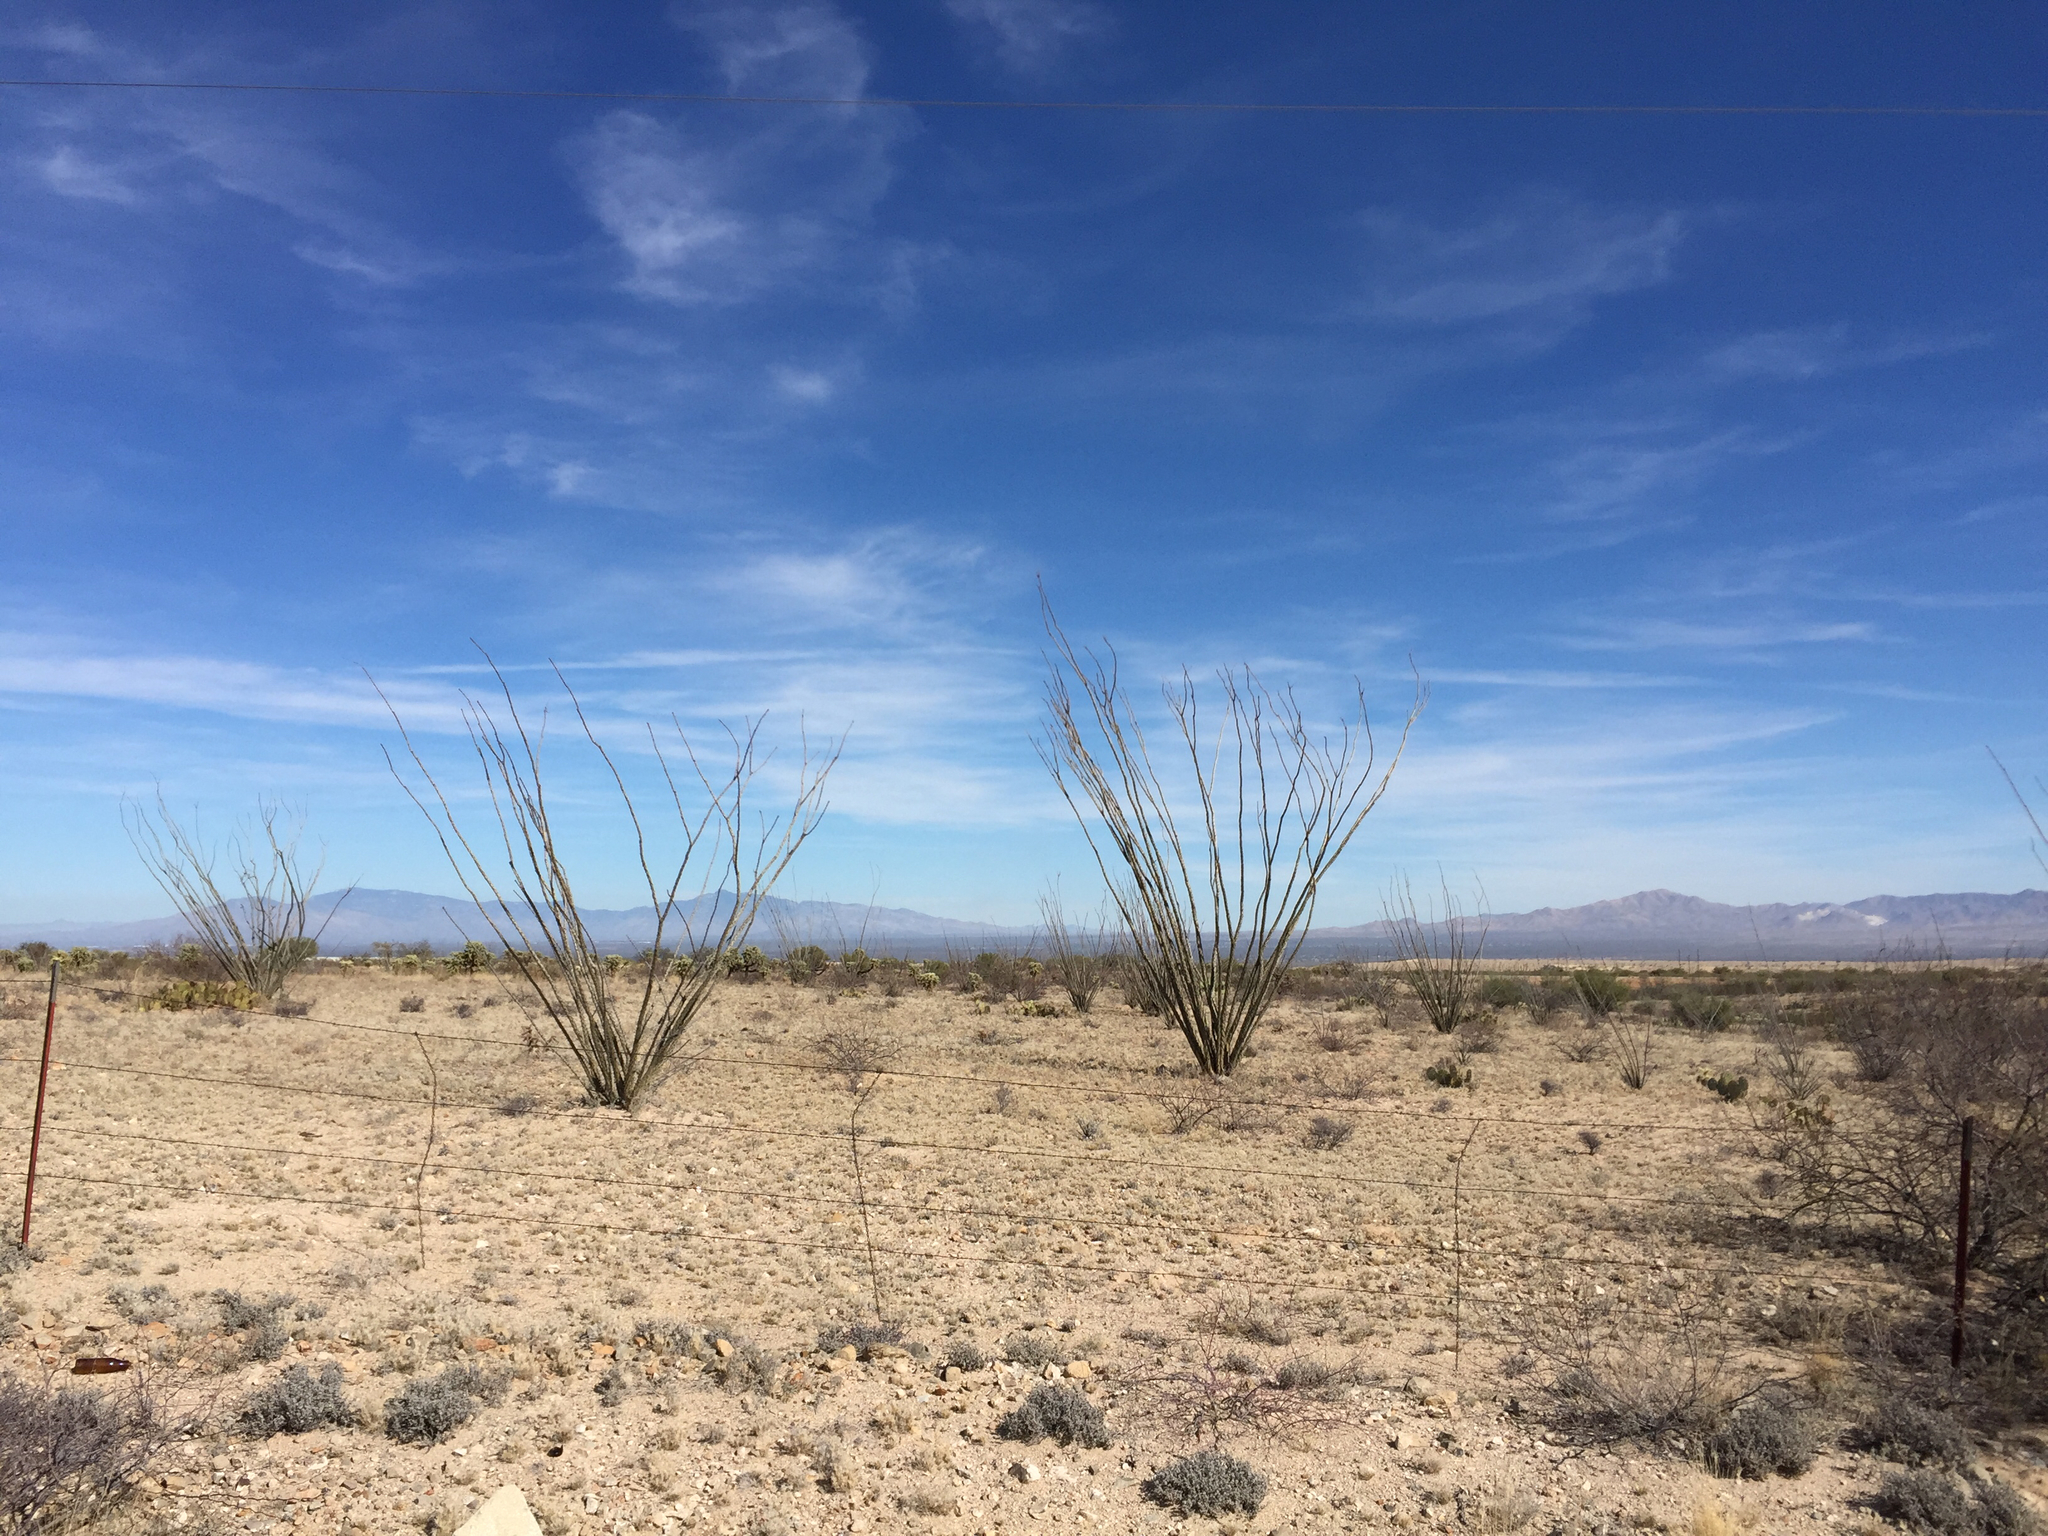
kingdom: Plantae
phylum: Tracheophyta
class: Magnoliopsida
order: Ericales
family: Fouquieriaceae
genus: Fouquieria
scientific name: Fouquieria splendens
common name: Vine-cactus
